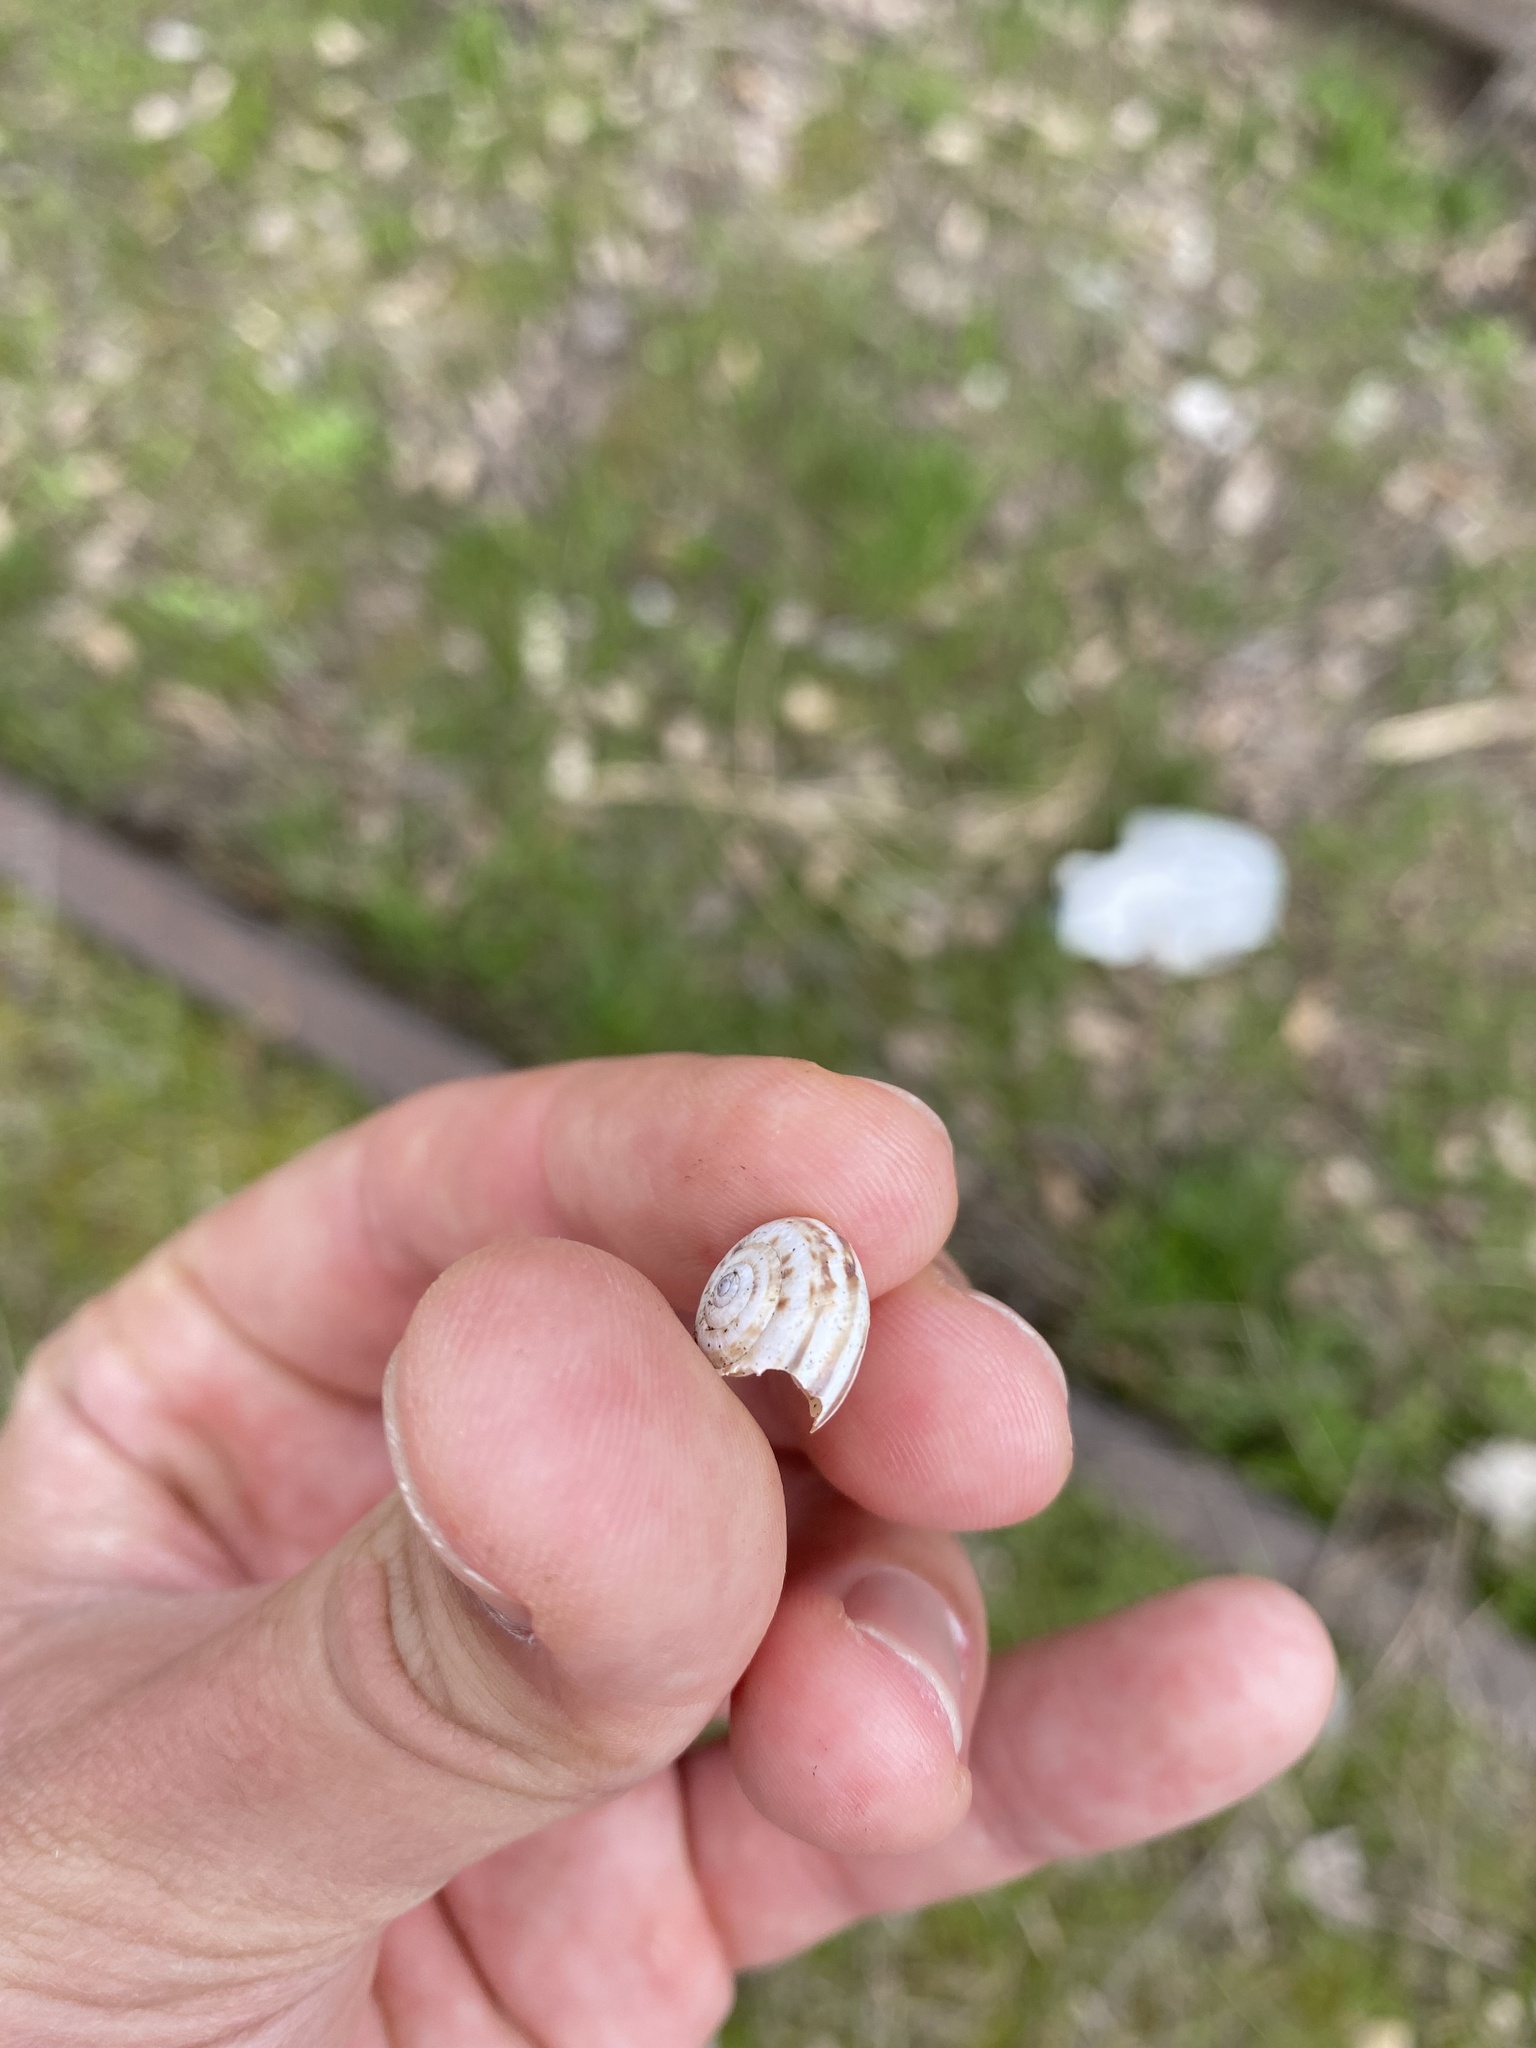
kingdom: Animalia
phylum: Mollusca
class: Gastropoda
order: Stylommatophora
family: Geomitridae
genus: Xeropicta
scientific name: Xeropicta derbentina
